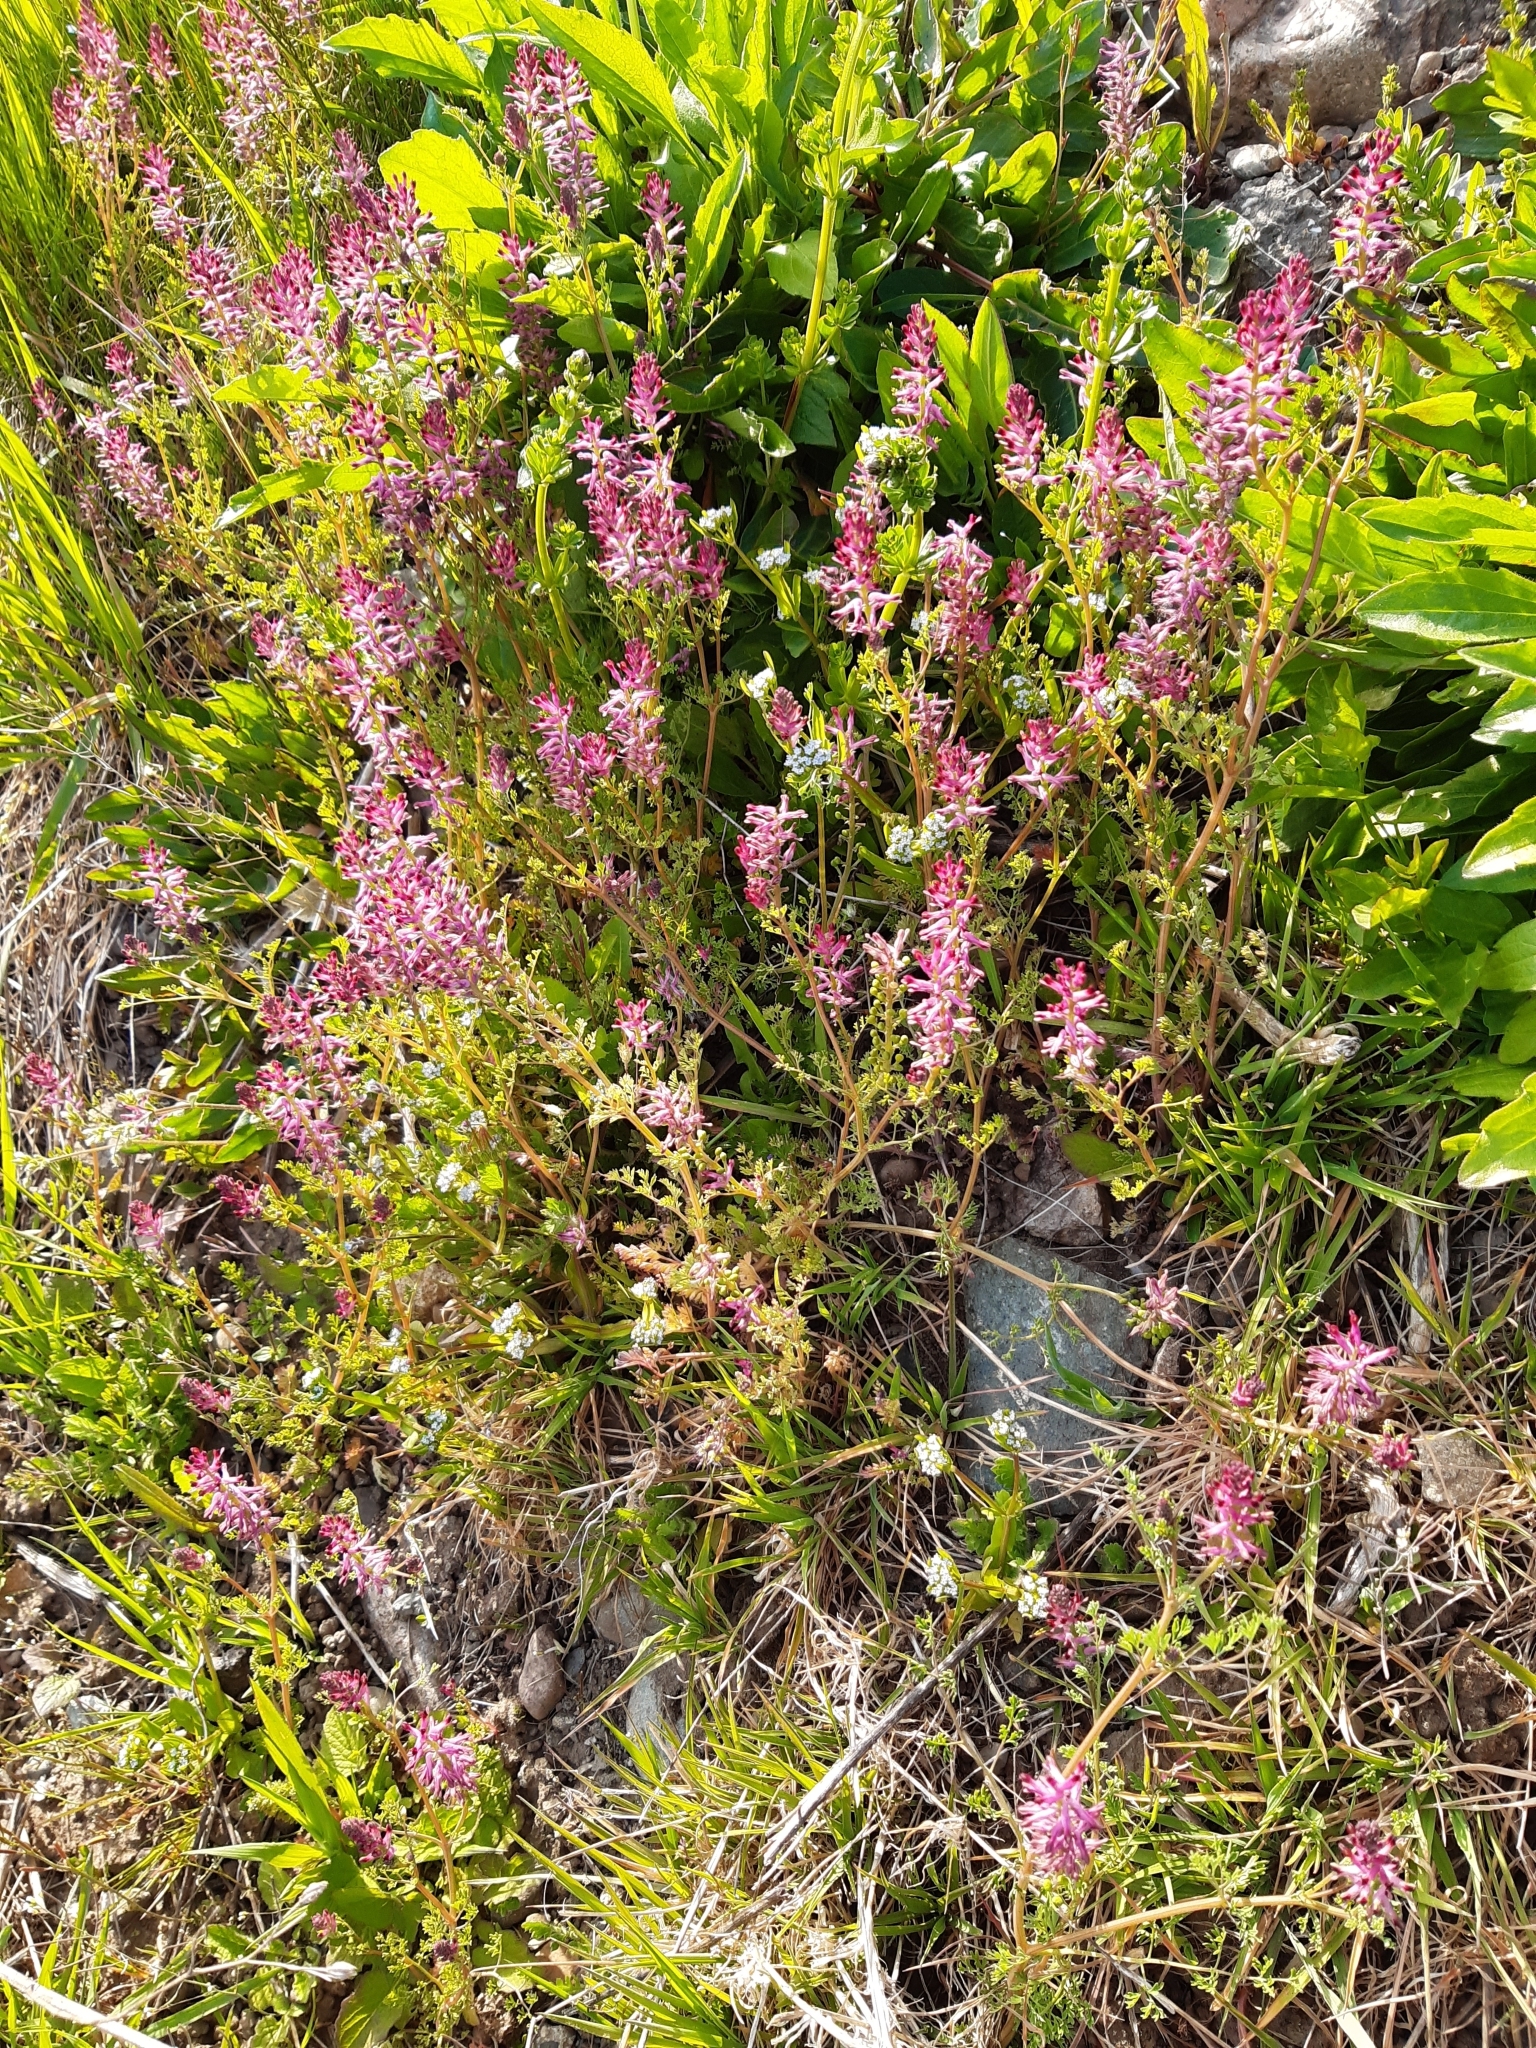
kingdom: Plantae
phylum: Tracheophyta
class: Magnoliopsida
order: Ranunculales
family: Papaveraceae
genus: Fumaria
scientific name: Fumaria officinalis
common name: Common fumitory
